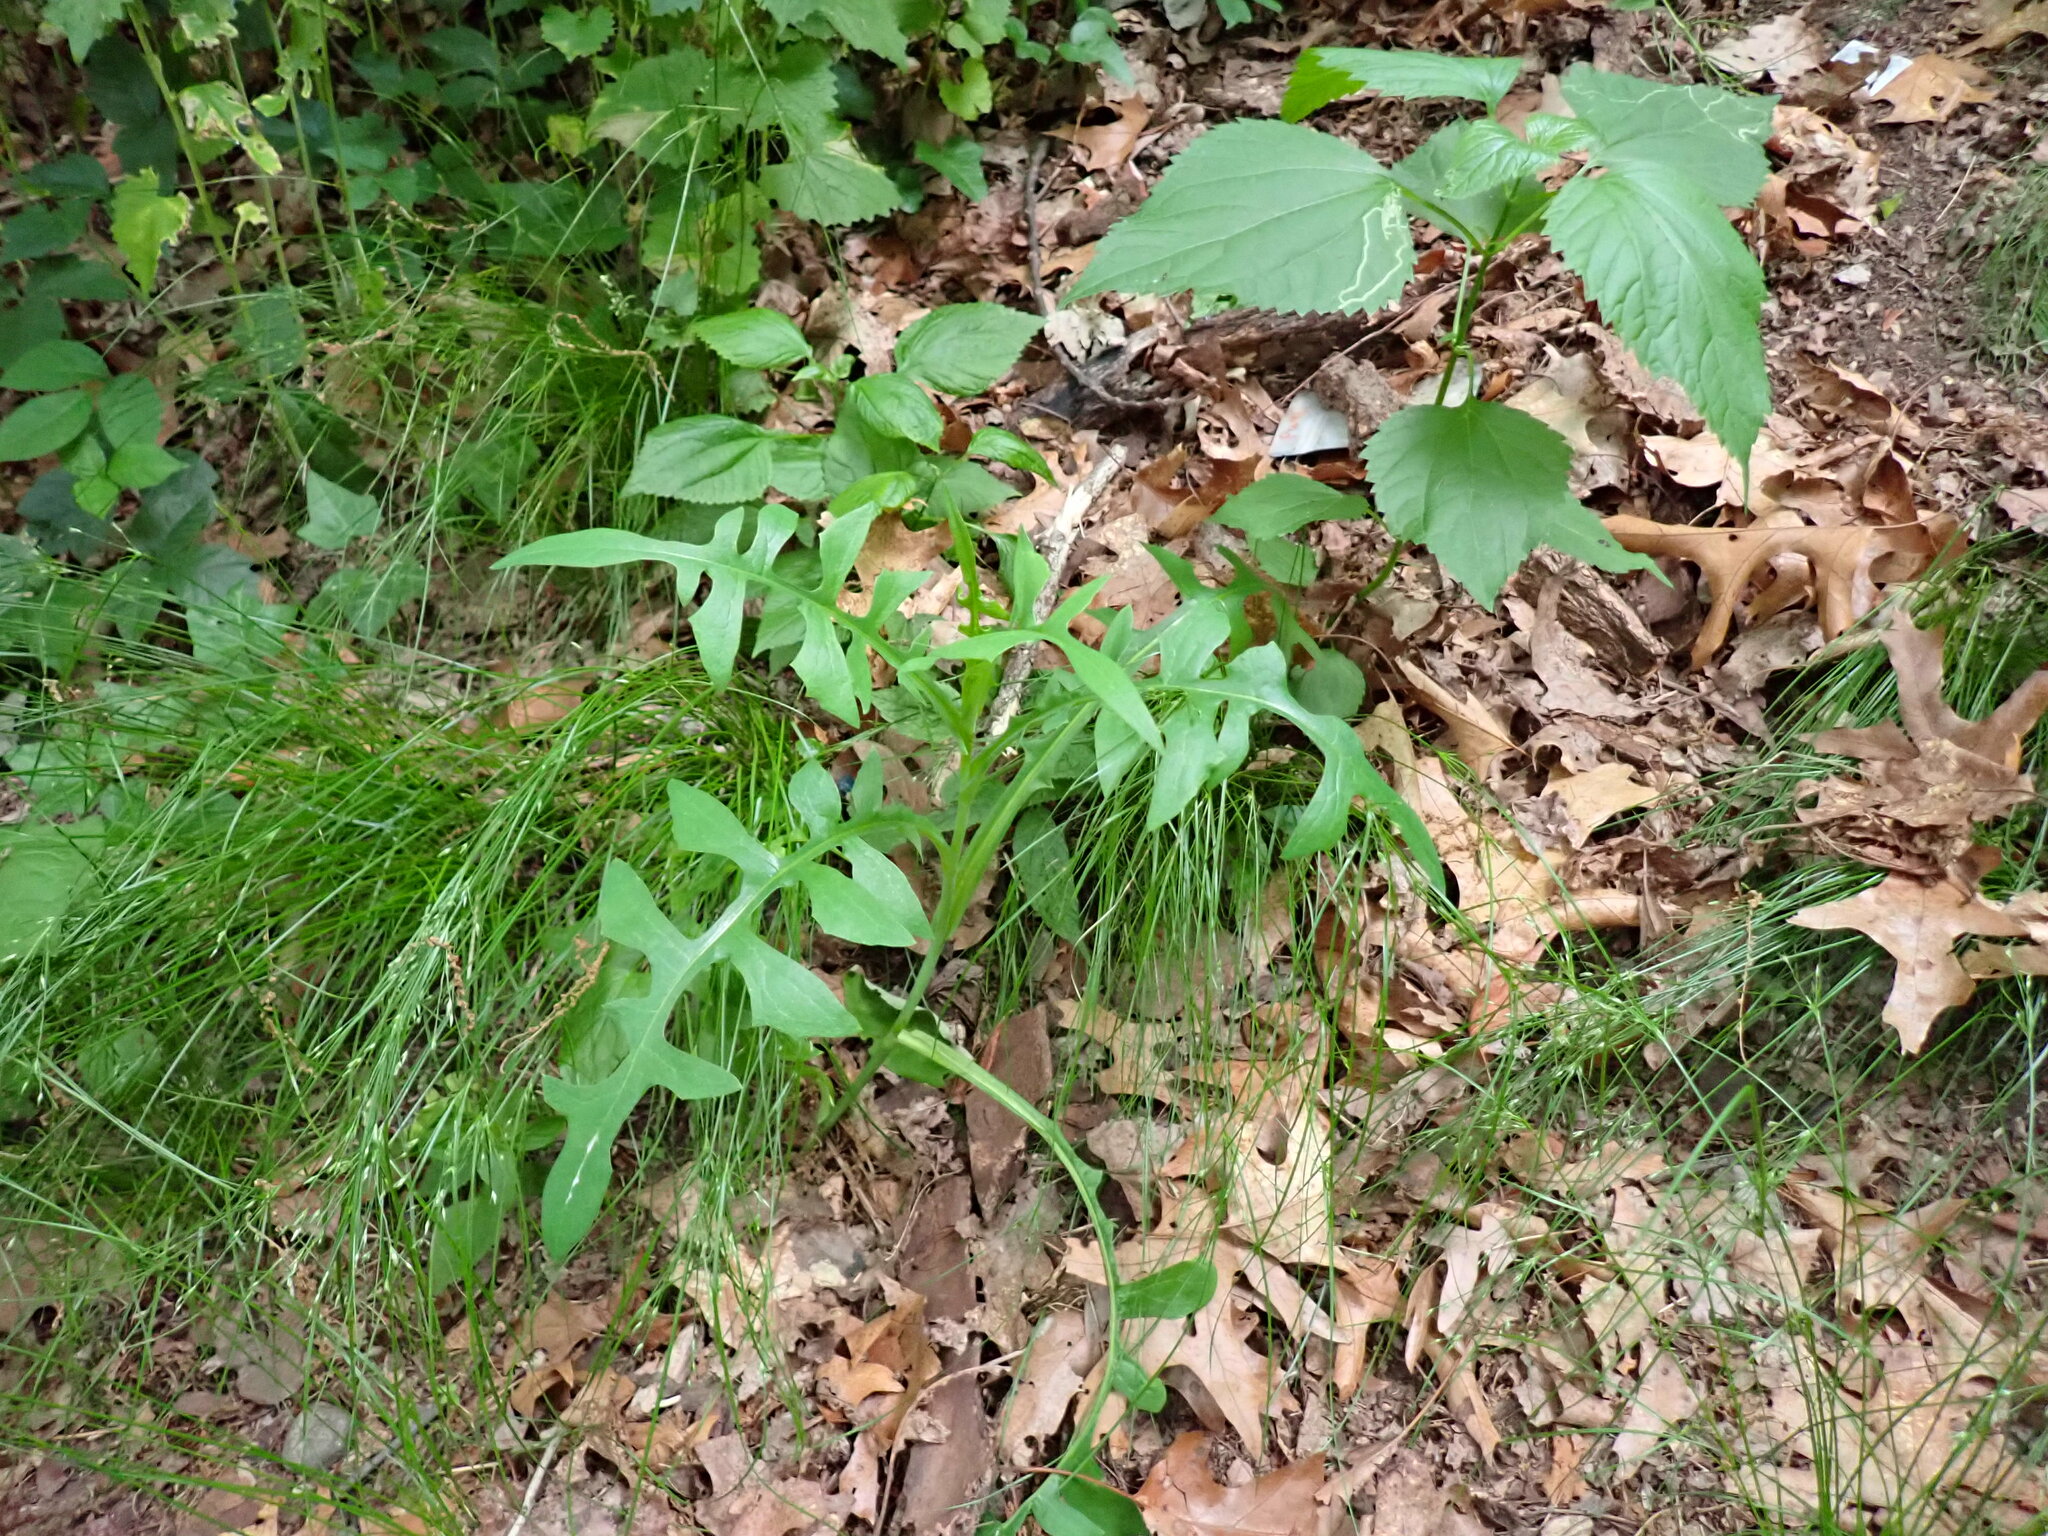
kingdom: Plantae
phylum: Tracheophyta
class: Magnoliopsida
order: Asterales
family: Asteraceae
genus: Ambrosia
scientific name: Ambrosia trifida
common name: Giant ragweed
